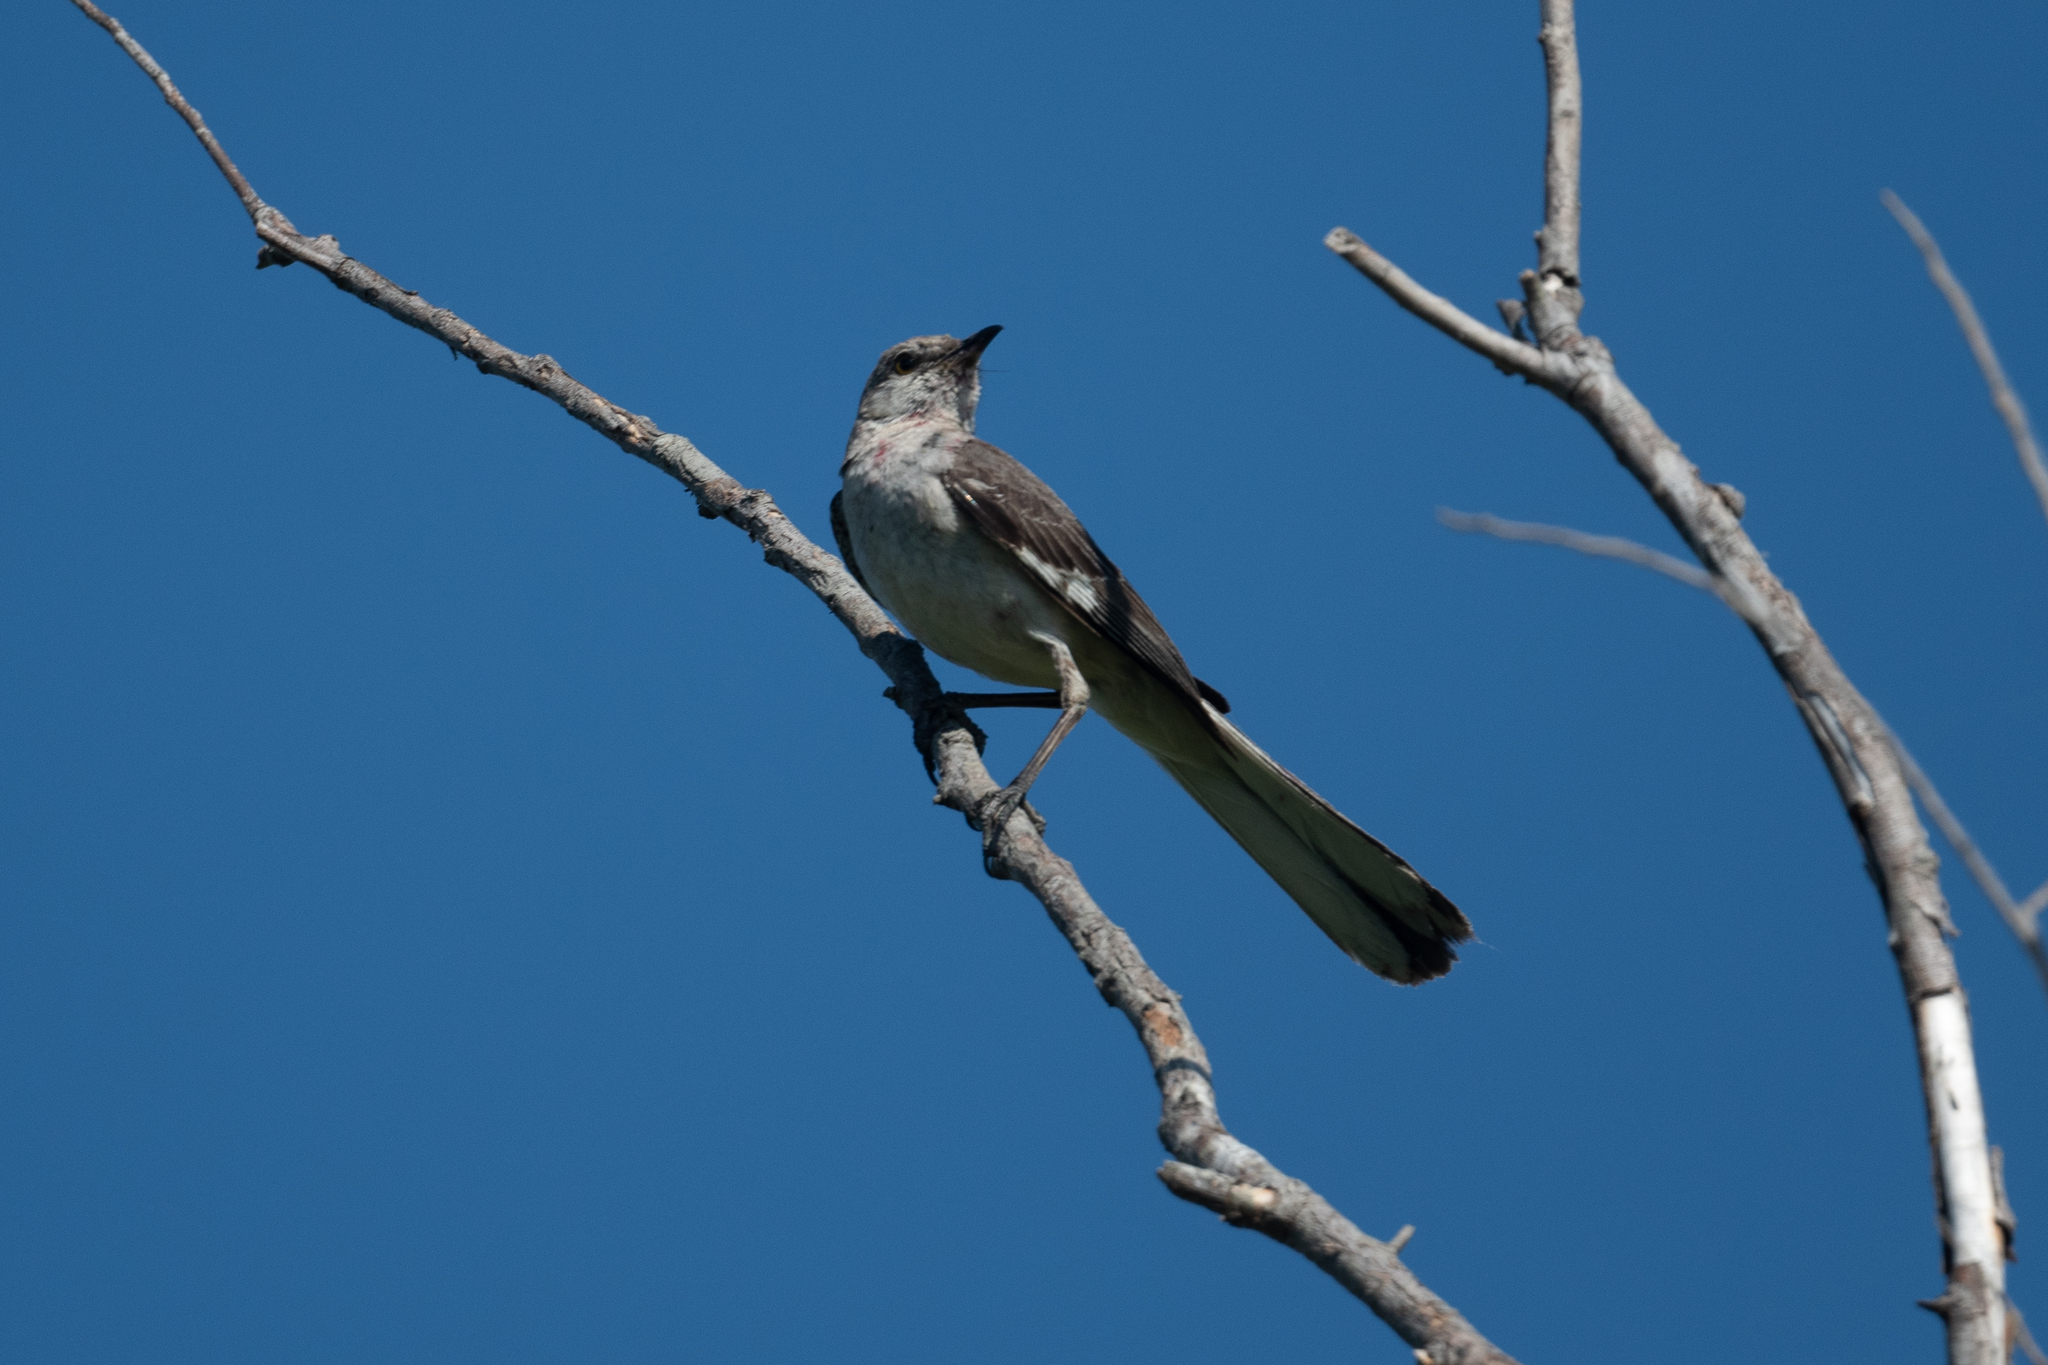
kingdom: Animalia
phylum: Chordata
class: Aves
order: Passeriformes
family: Mimidae
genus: Mimus
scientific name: Mimus polyglottos
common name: Northern mockingbird
